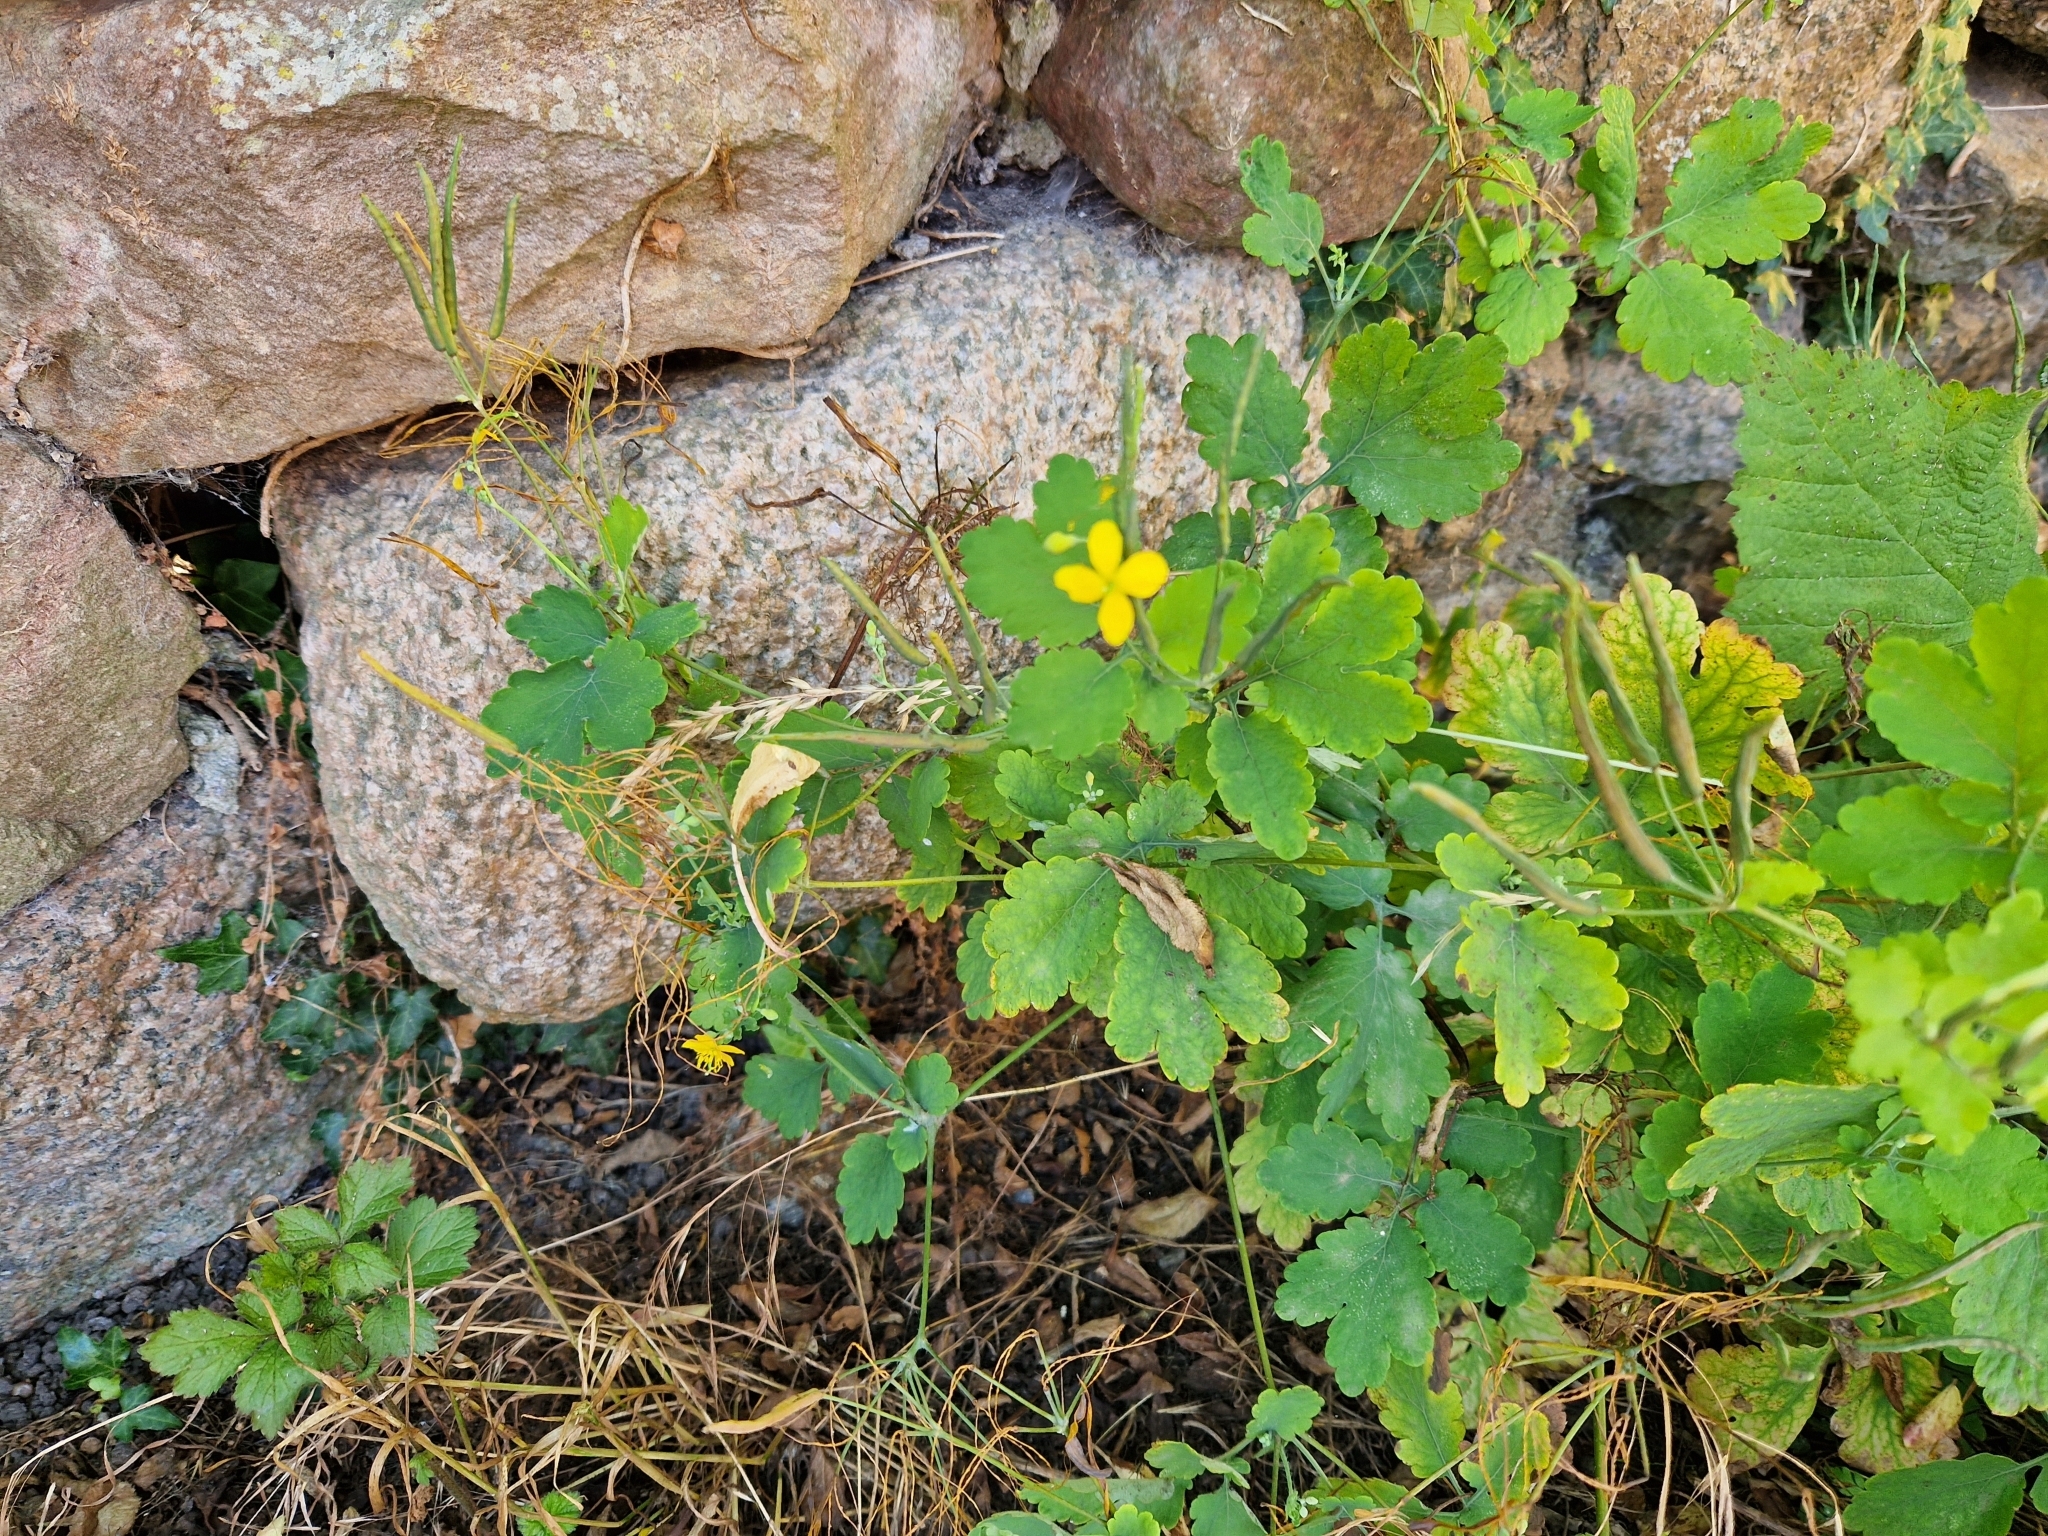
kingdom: Plantae
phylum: Tracheophyta
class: Magnoliopsida
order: Ranunculales
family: Papaveraceae
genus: Chelidonium
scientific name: Chelidonium majus
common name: Greater celandine
